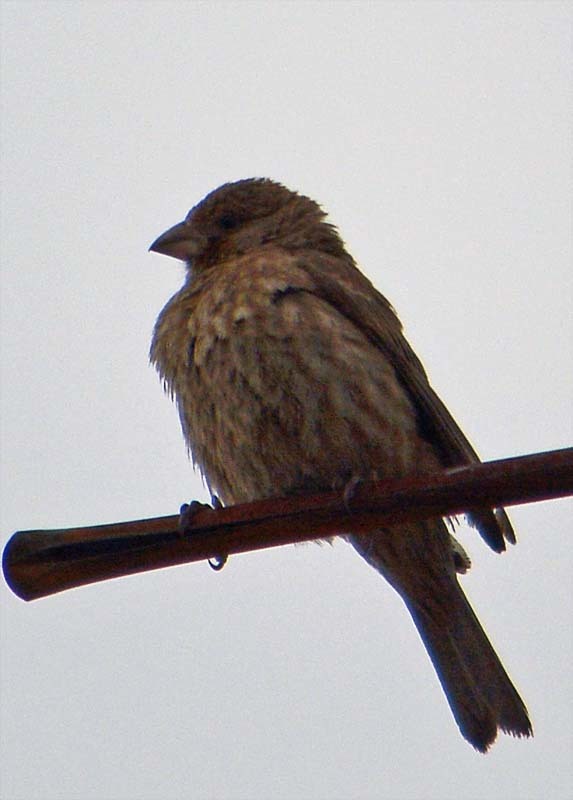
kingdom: Animalia
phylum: Chordata
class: Aves
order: Passeriformes
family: Fringillidae
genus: Haemorhous
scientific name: Haemorhous mexicanus
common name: House finch
